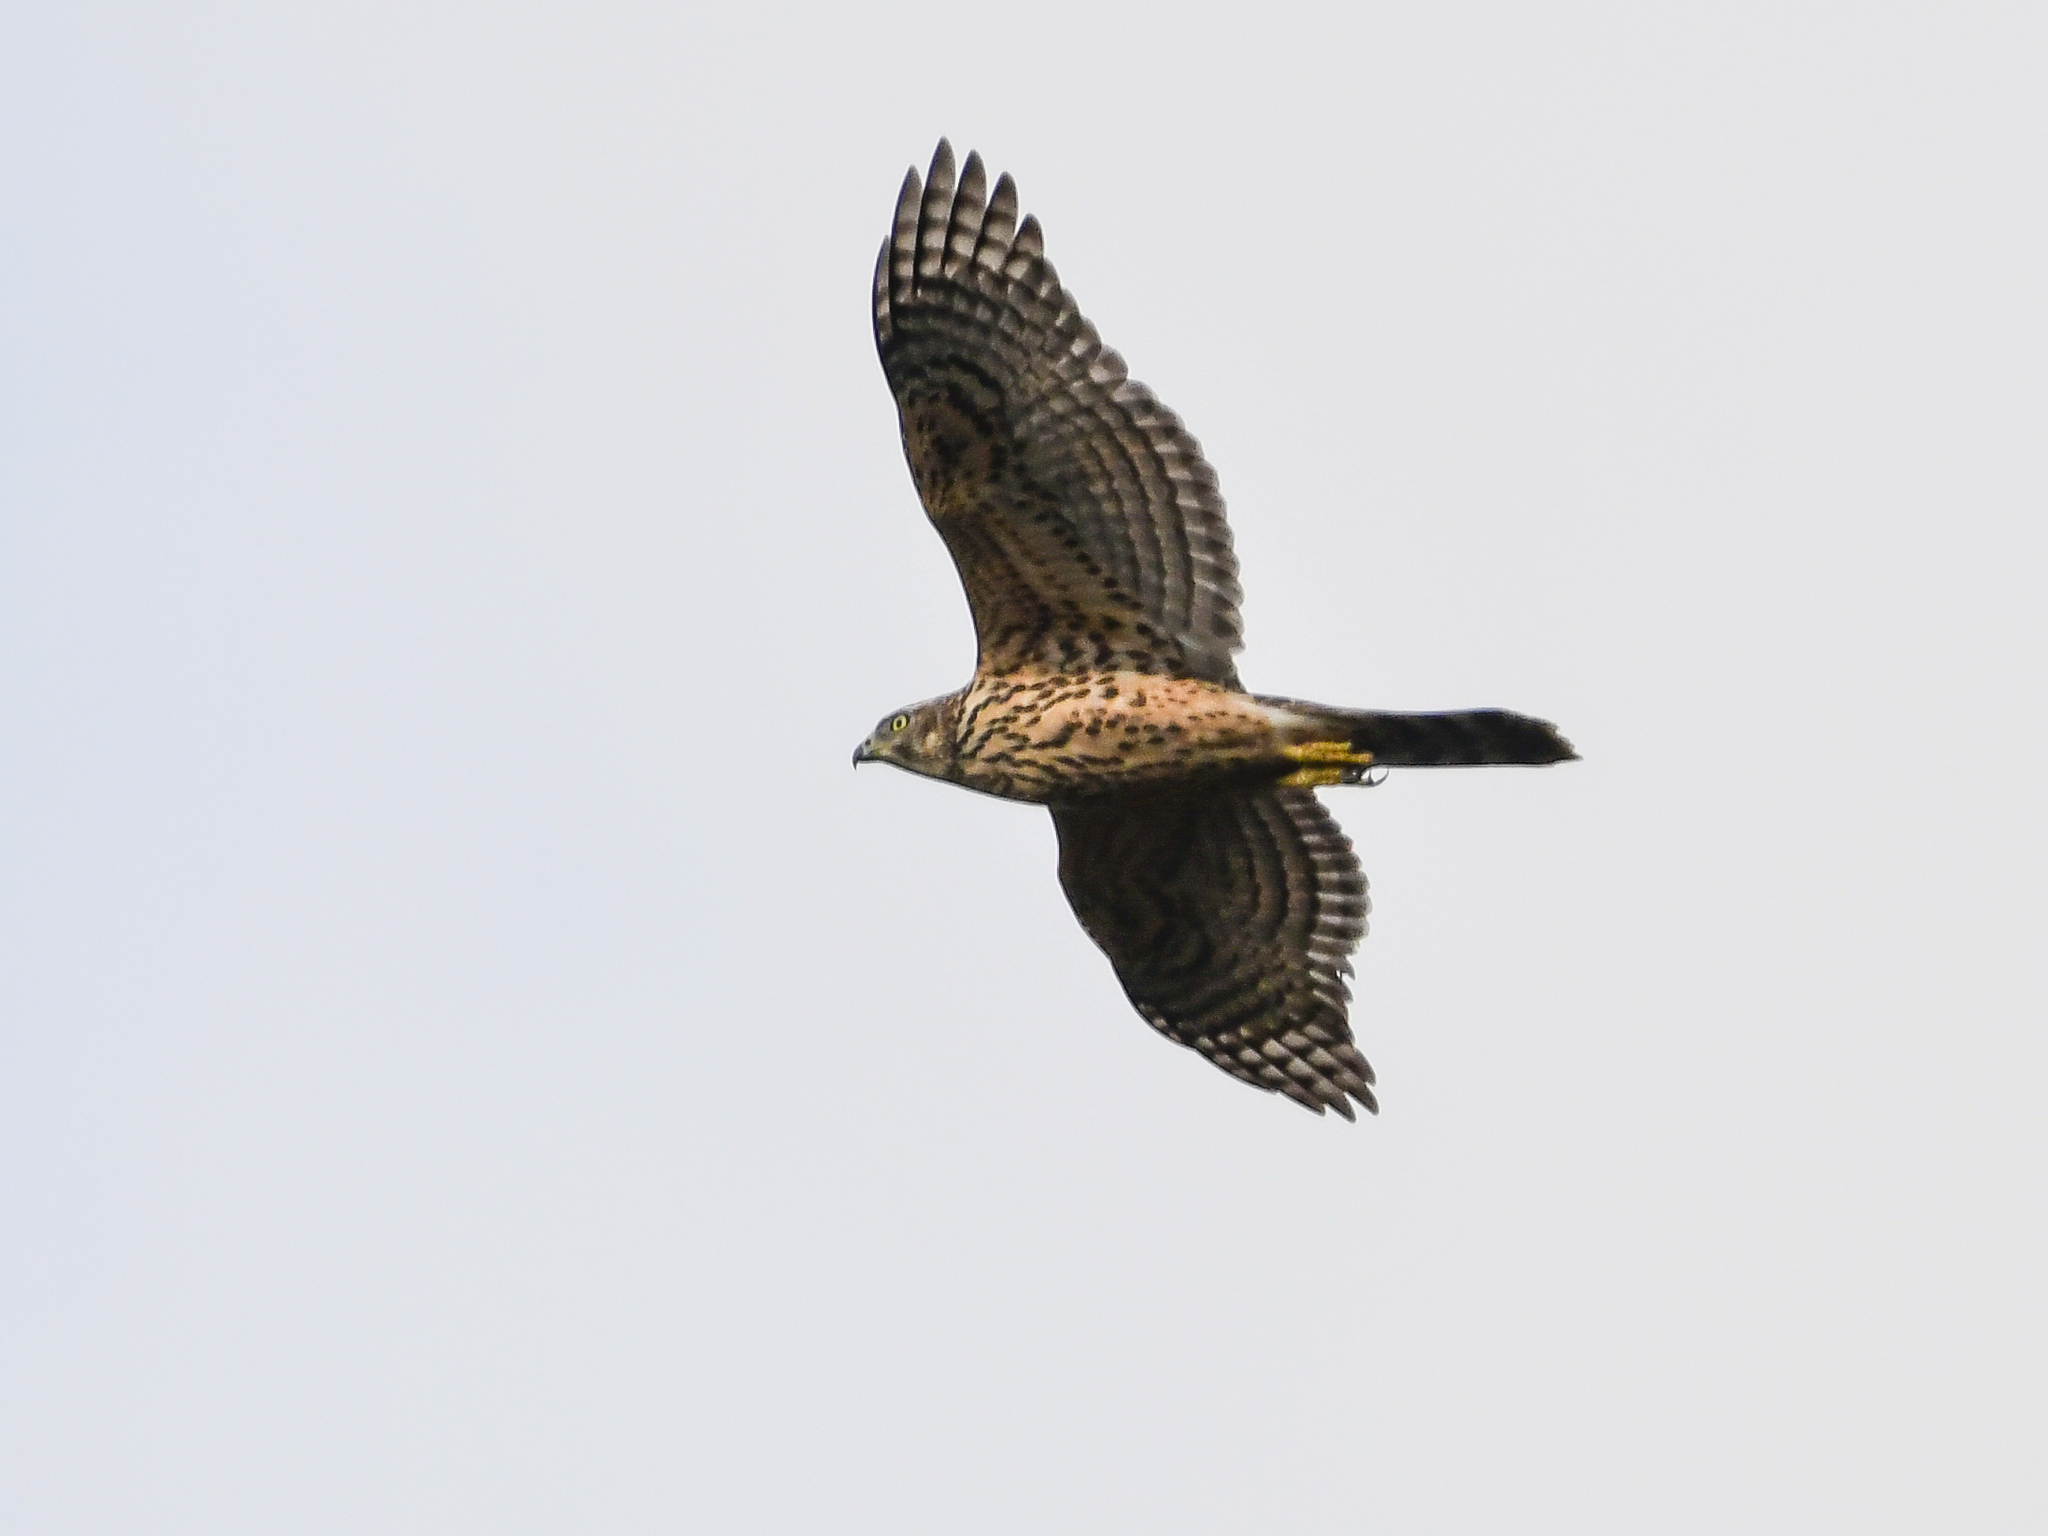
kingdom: Animalia
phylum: Chordata
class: Aves
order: Accipitriformes
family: Accipitridae
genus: Accipiter
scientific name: Accipiter gentilis
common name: Northern goshawk
